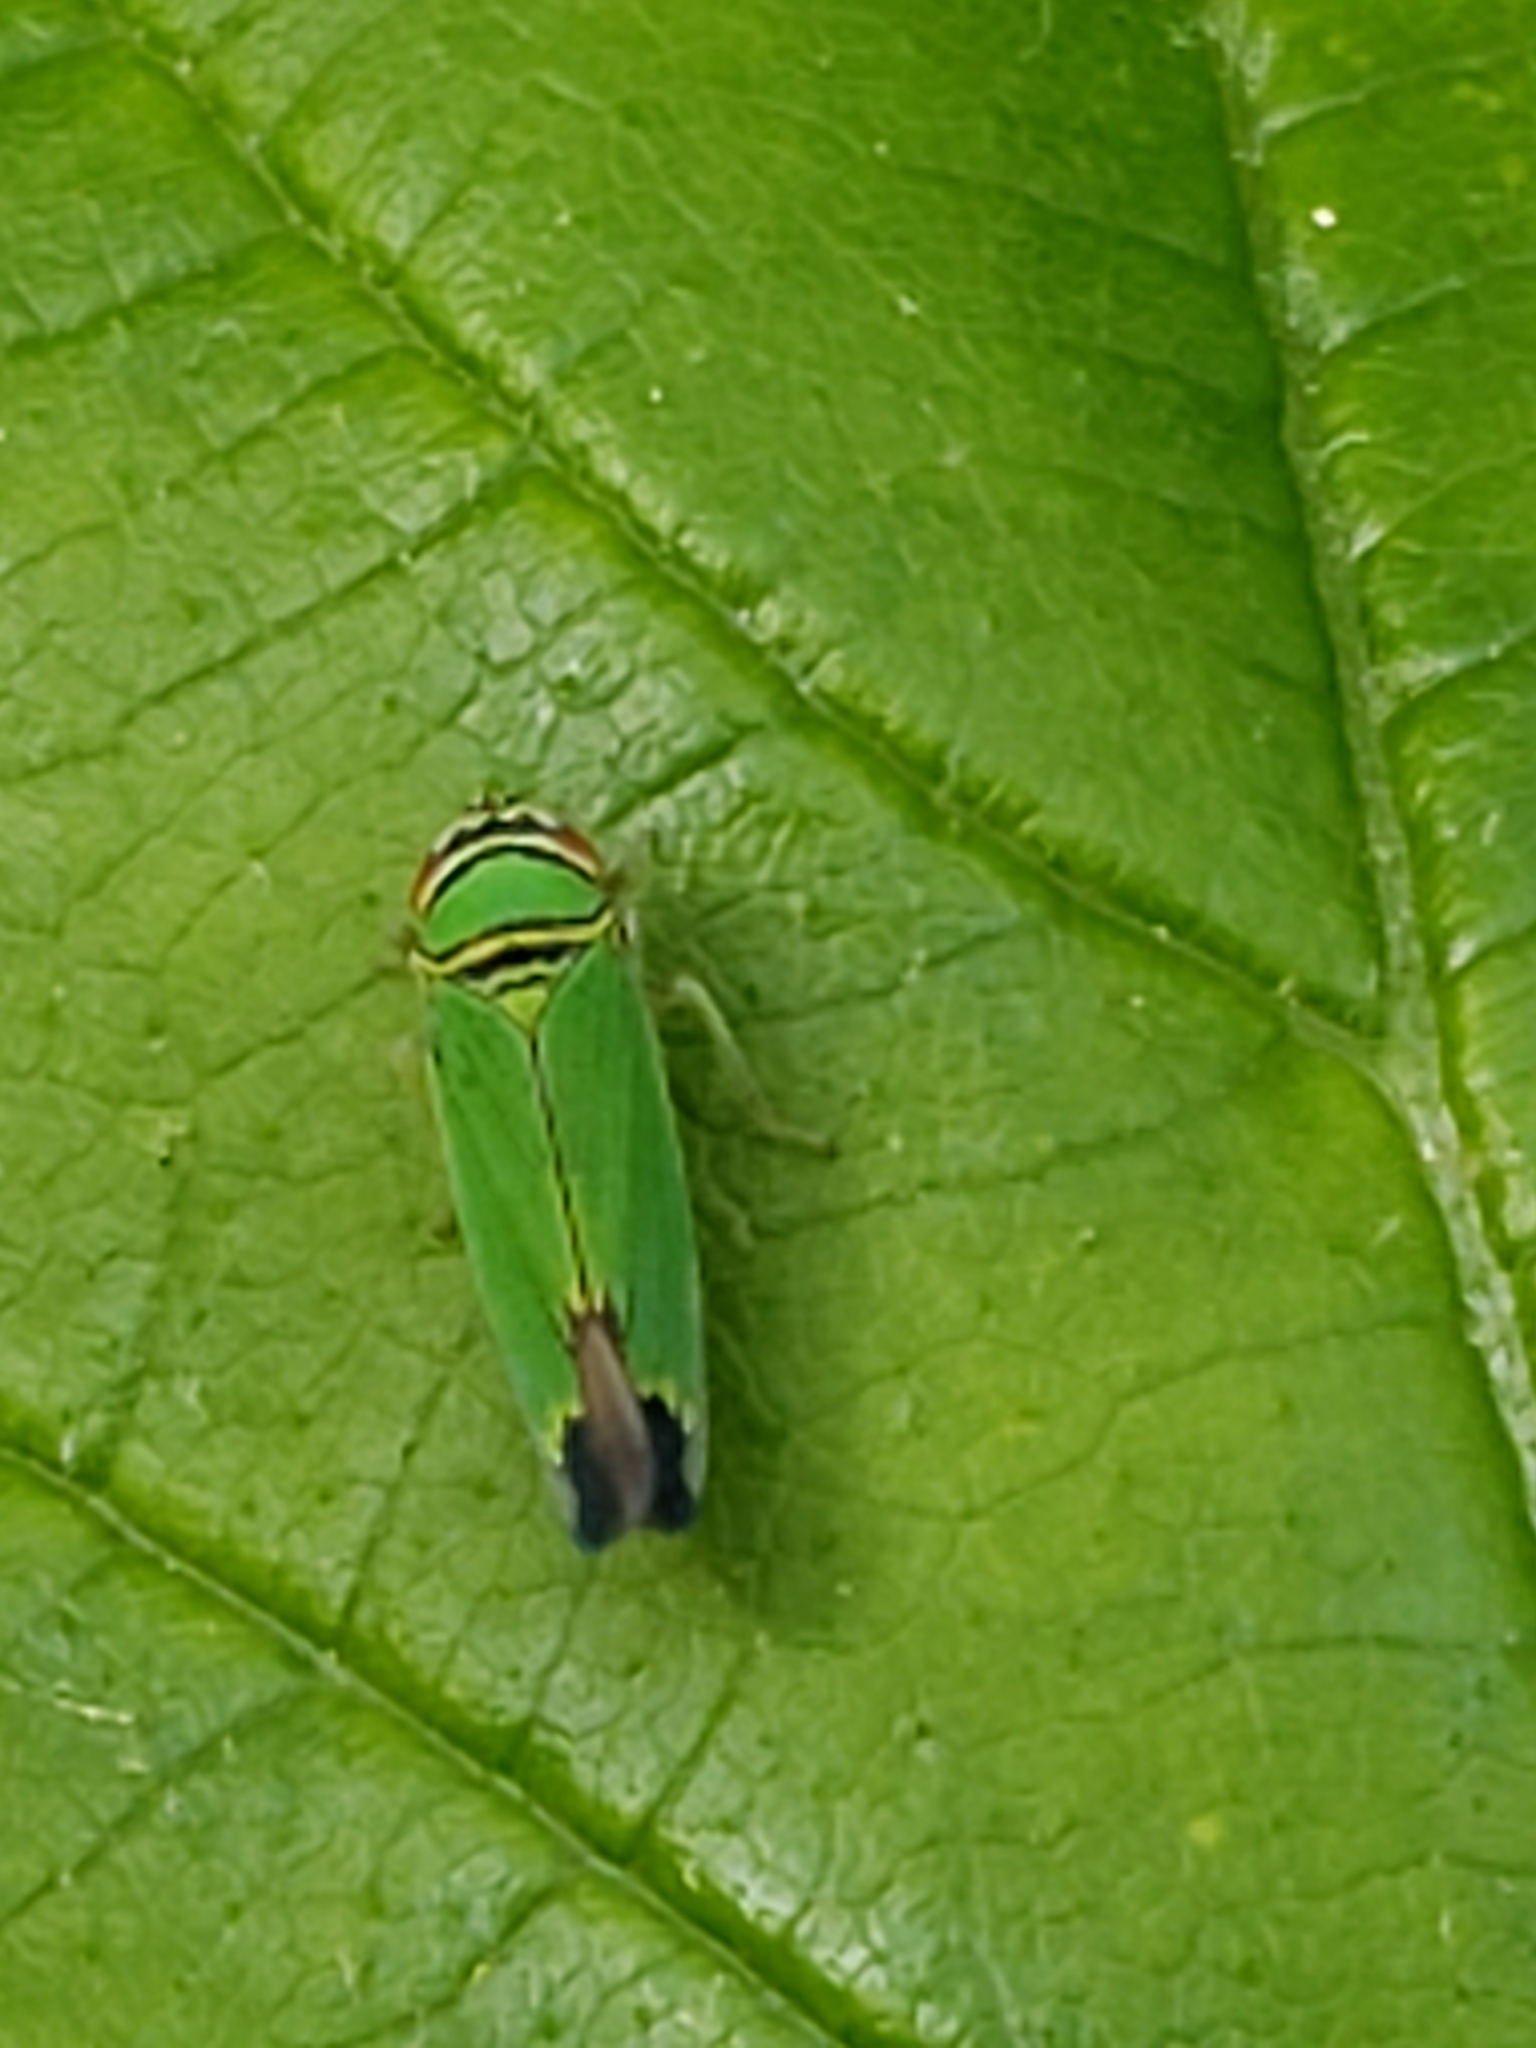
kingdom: Animalia
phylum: Arthropoda
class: Insecta
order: Hemiptera
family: Cicadellidae
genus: Tylozygus
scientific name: Tylozygus geometricus
